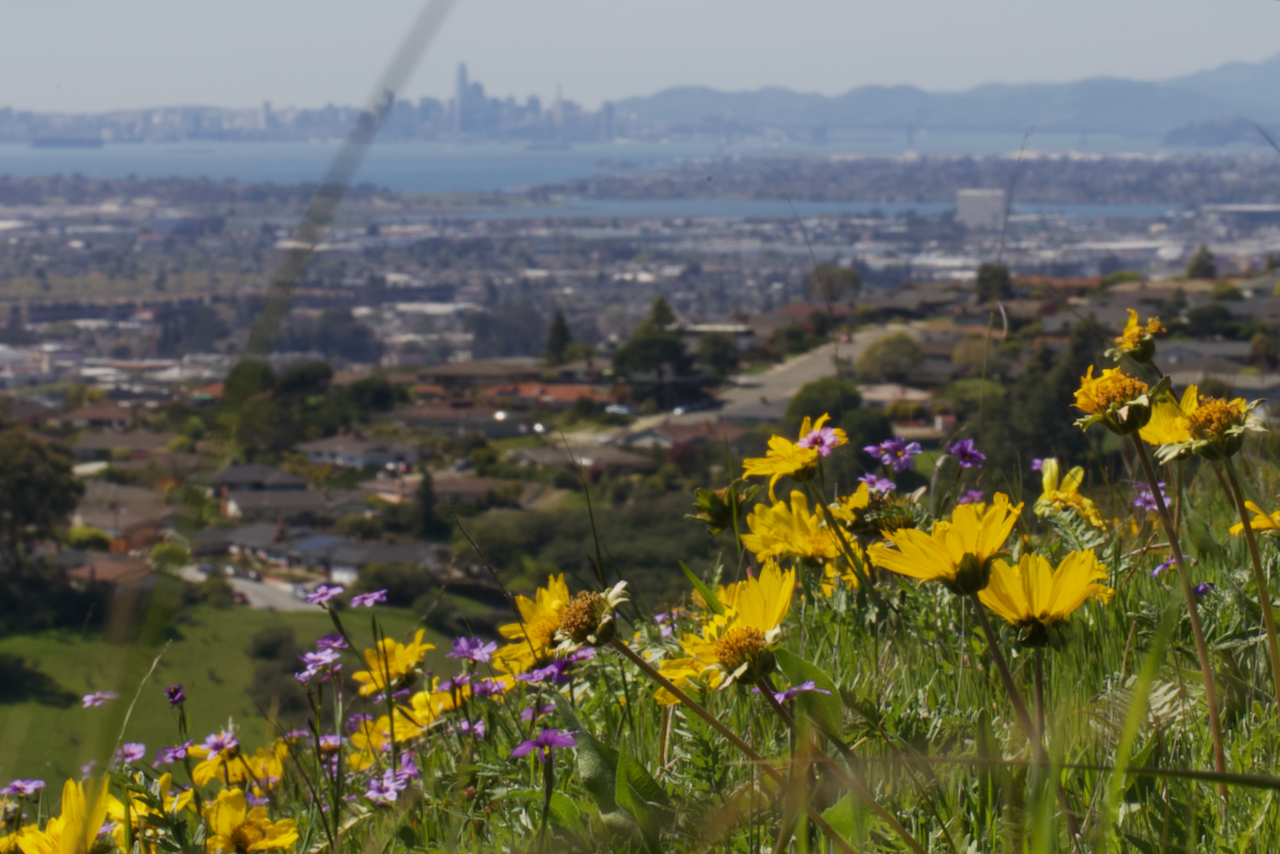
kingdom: Plantae
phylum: Tracheophyta
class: Magnoliopsida
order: Asterales
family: Asteraceae
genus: Balsamorhiza
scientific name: Balsamorhiza macrolepis
